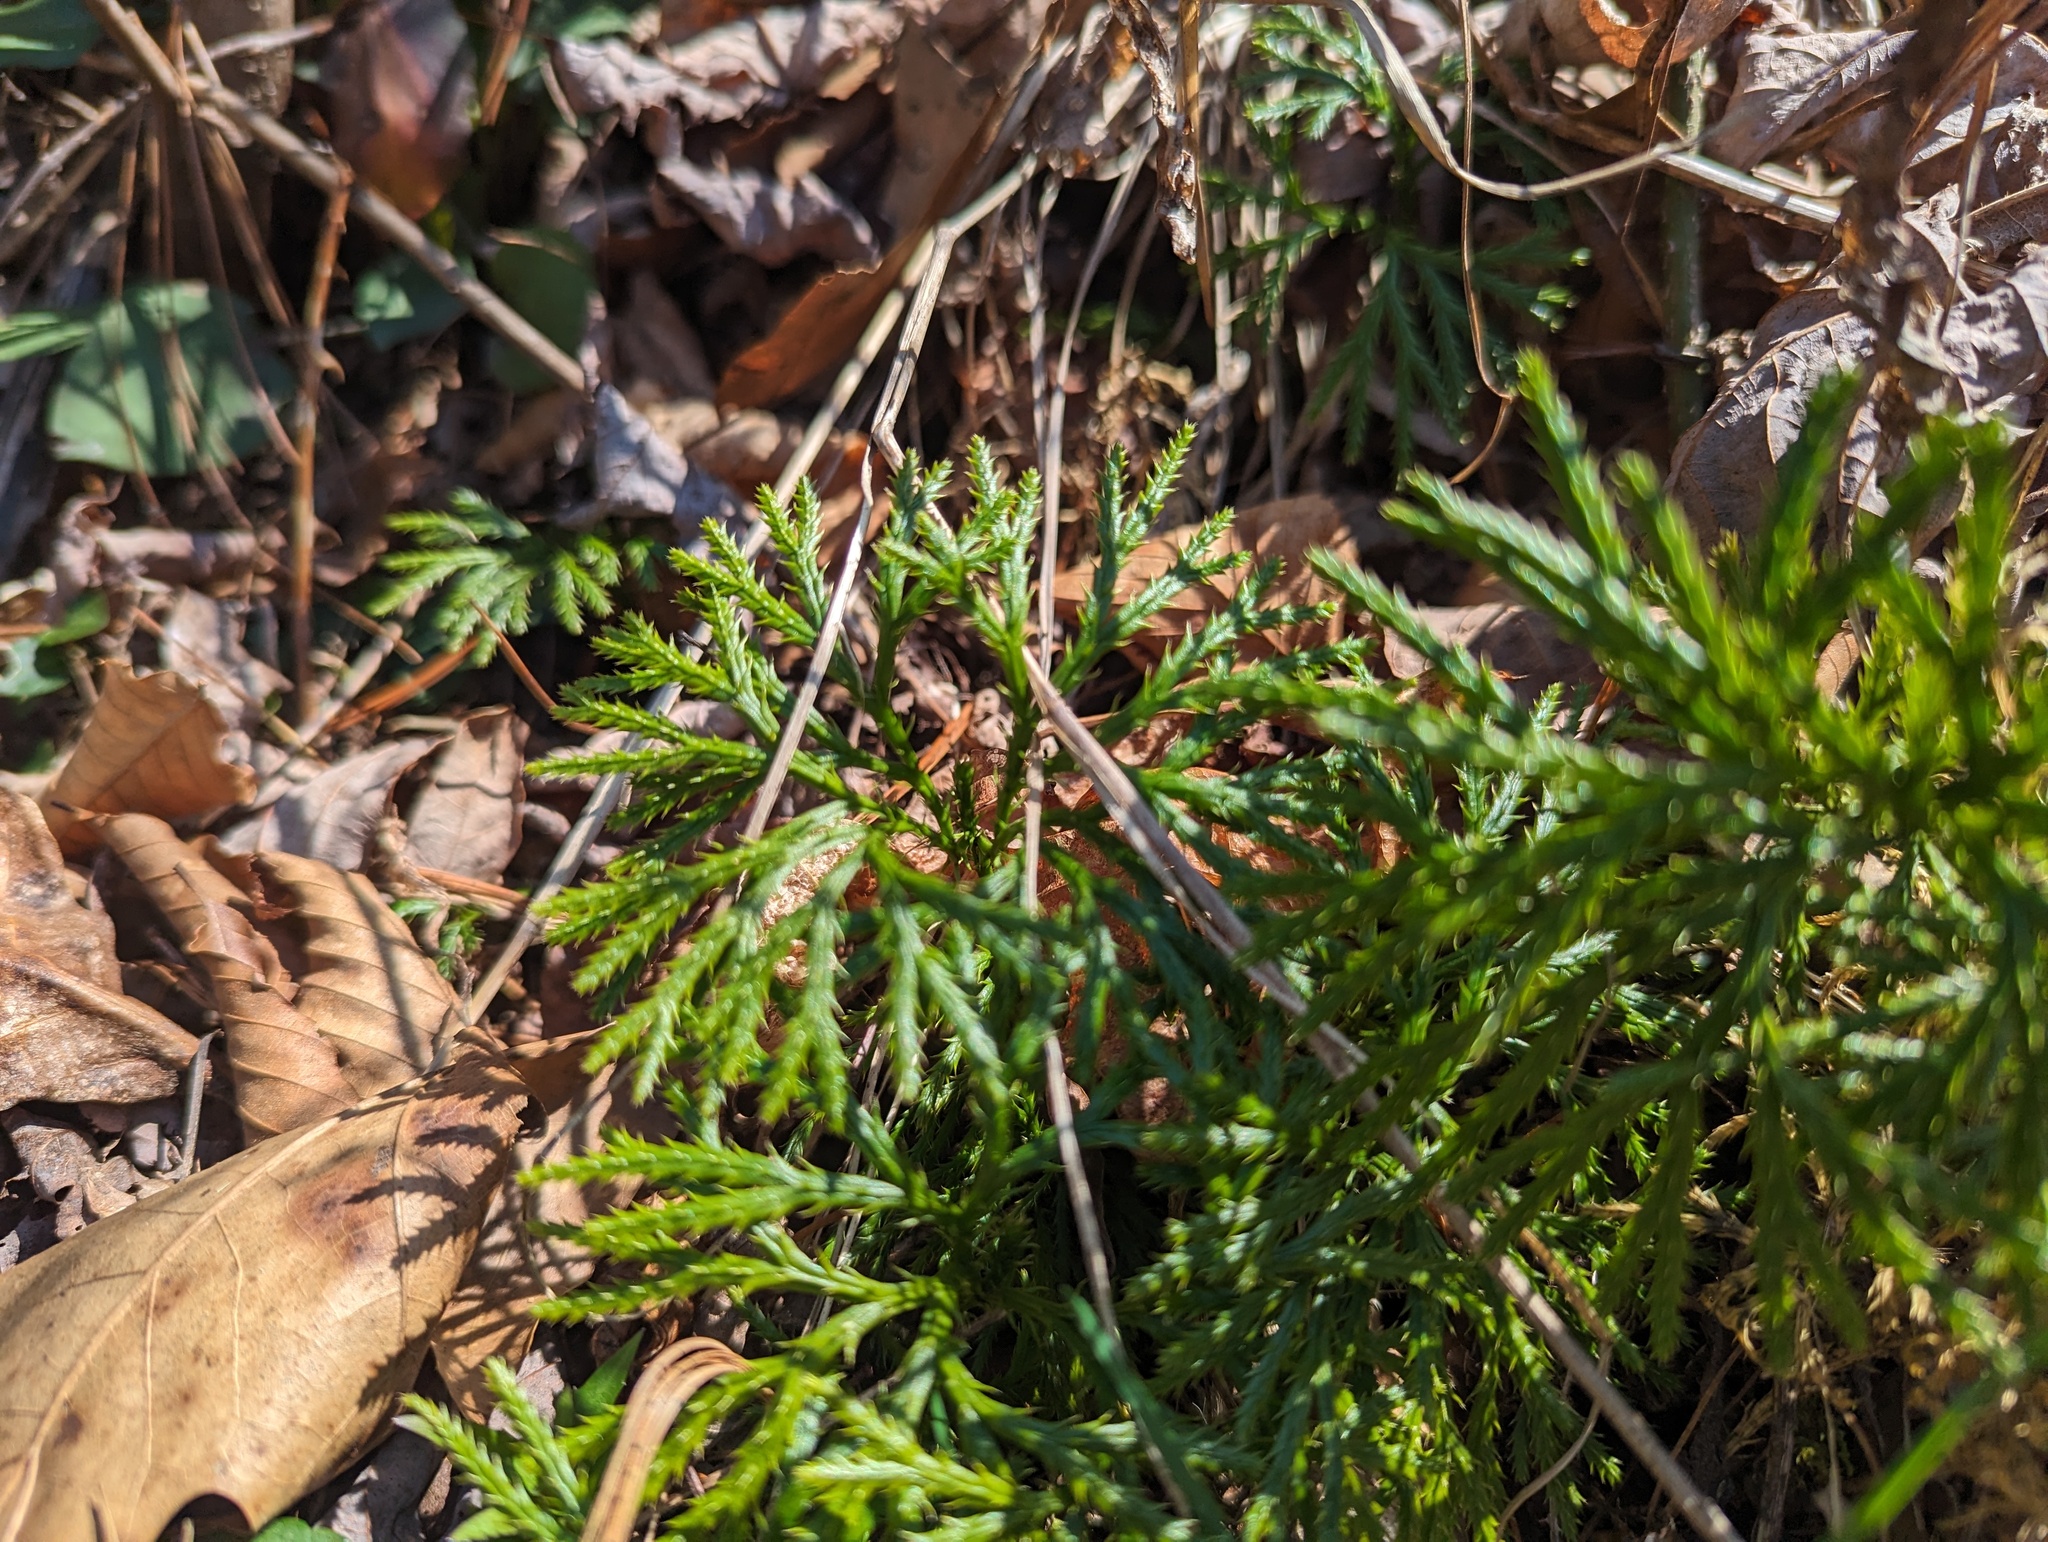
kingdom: Plantae
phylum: Tracheophyta
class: Lycopodiopsida
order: Lycopodiales
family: Lycopodiaceae
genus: Diphasiastrum
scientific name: Diphasiastrum digitatum
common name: Southern running-pine
